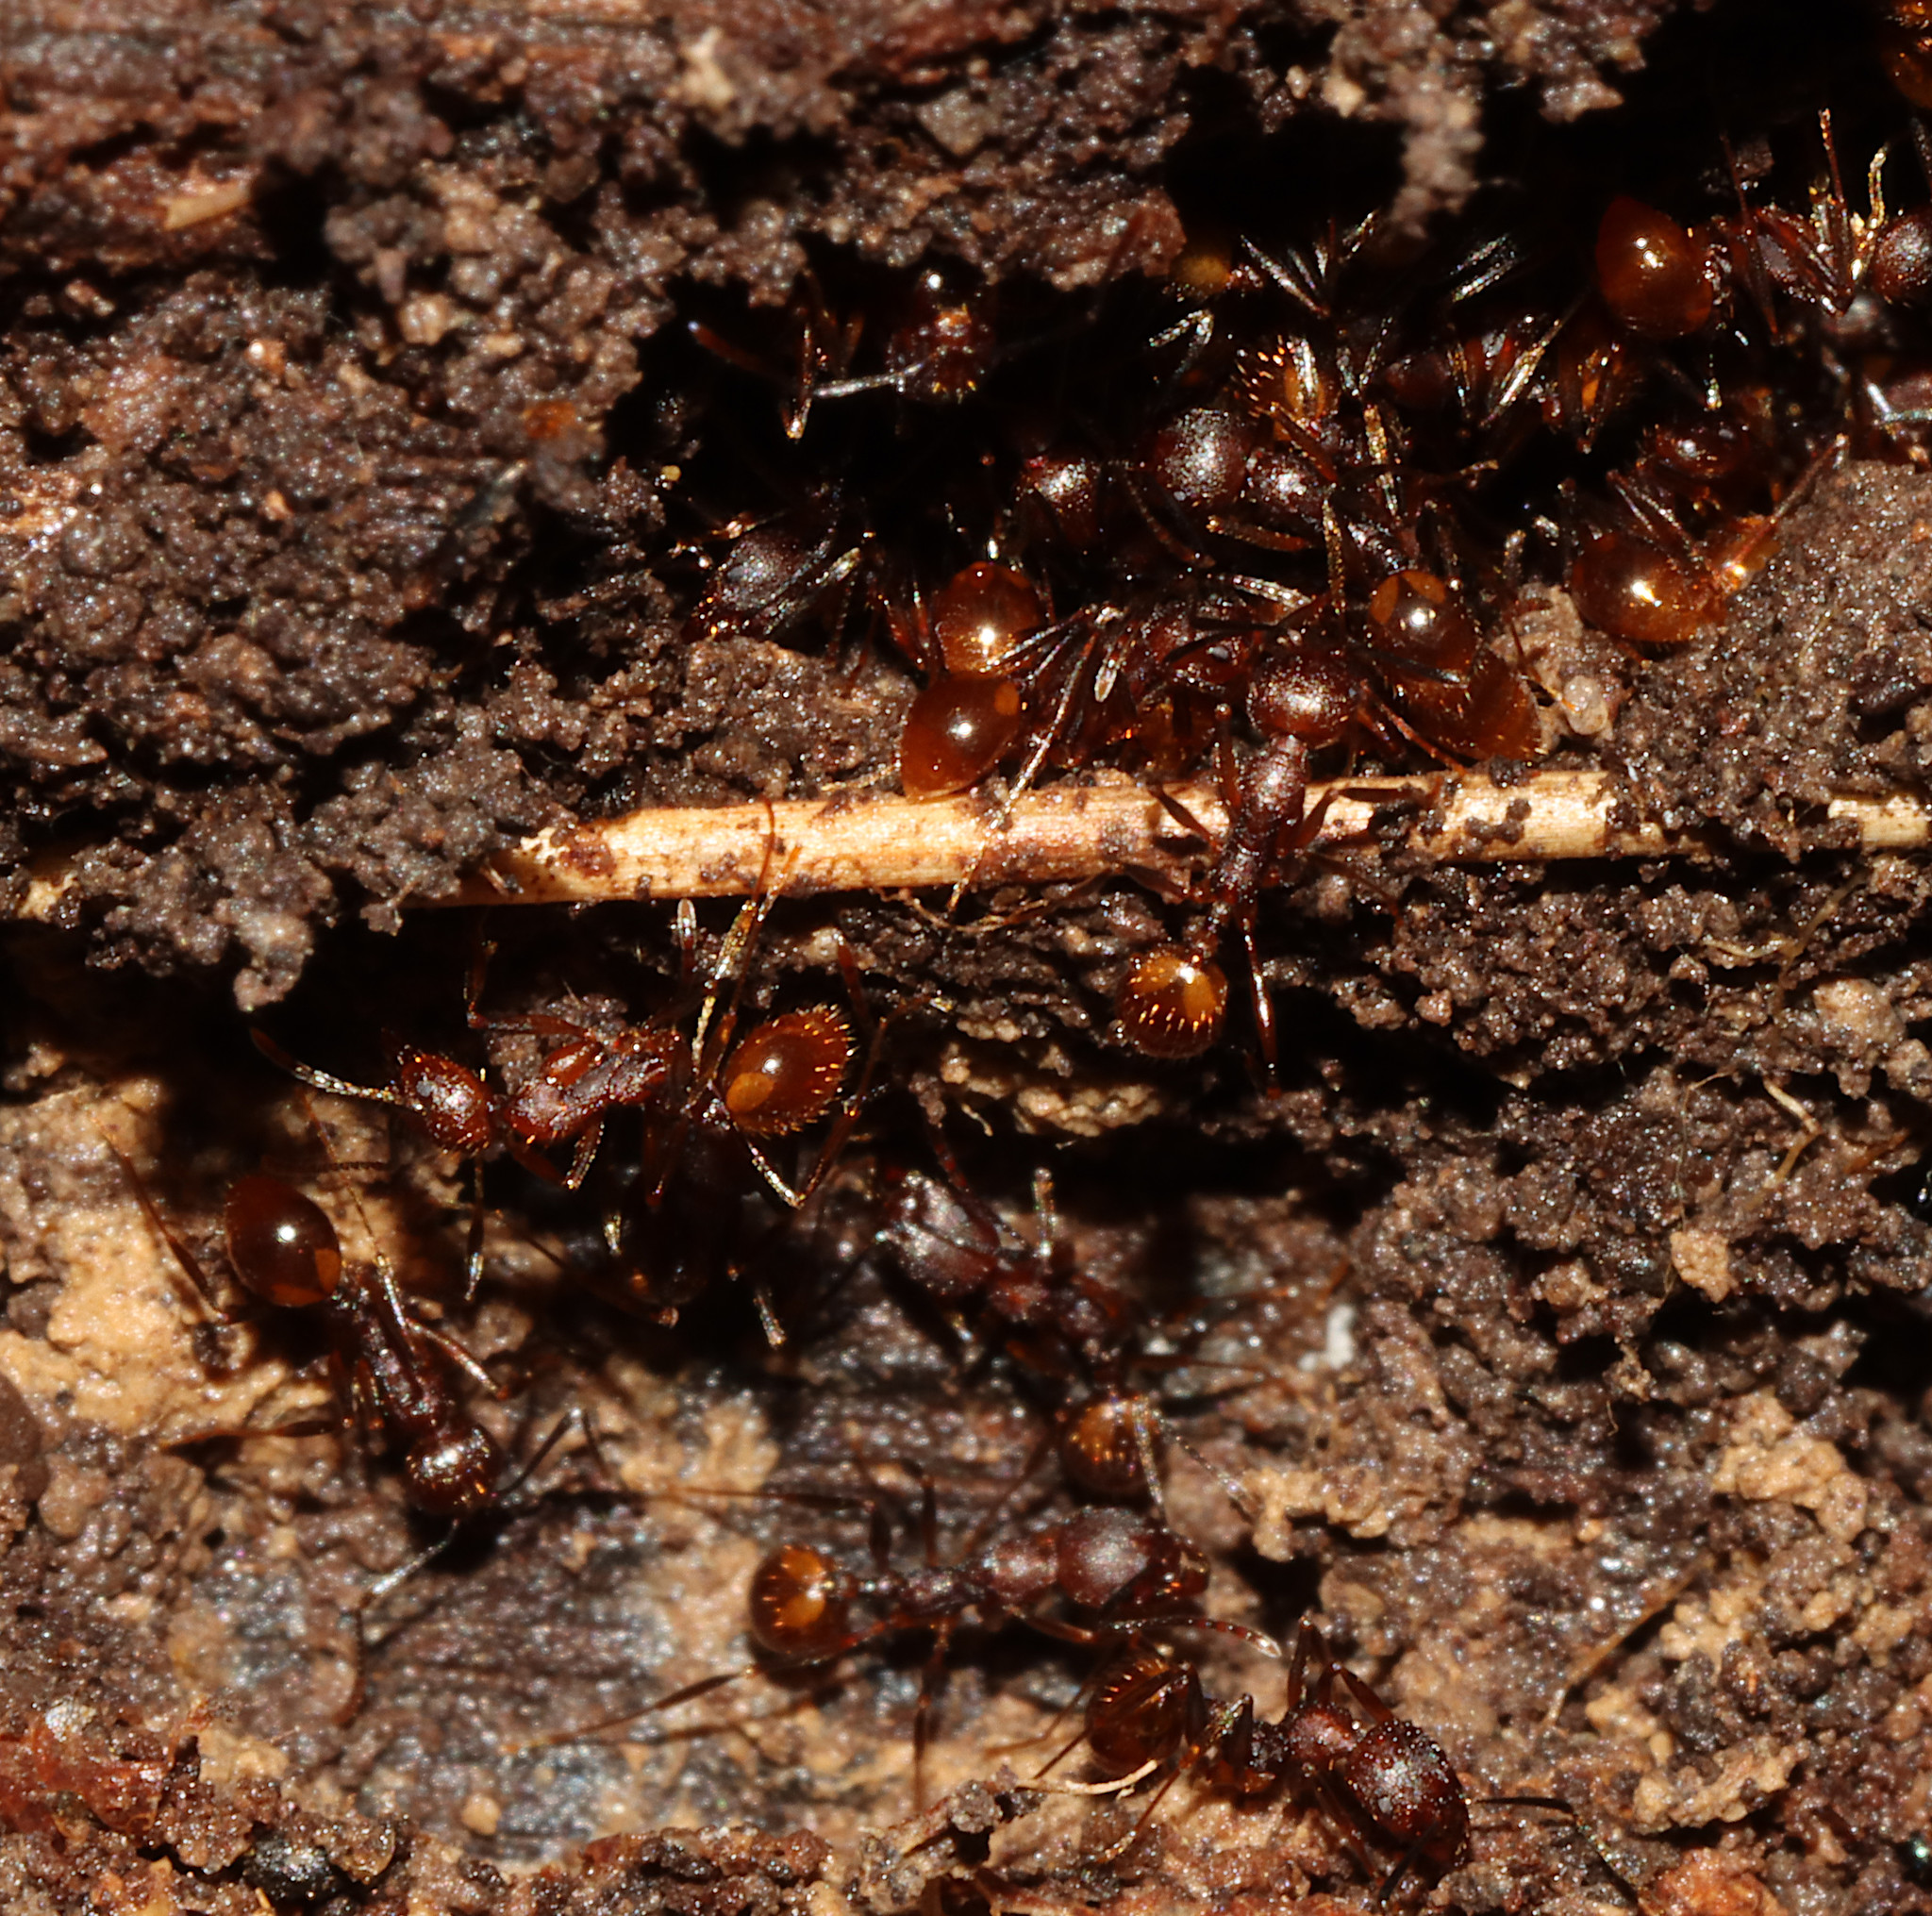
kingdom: Animalia
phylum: Arthropoda
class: Insecta
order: Hymenoptera
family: Formicidae
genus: Aphaenogaster
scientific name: Aphaenogaster fulva
